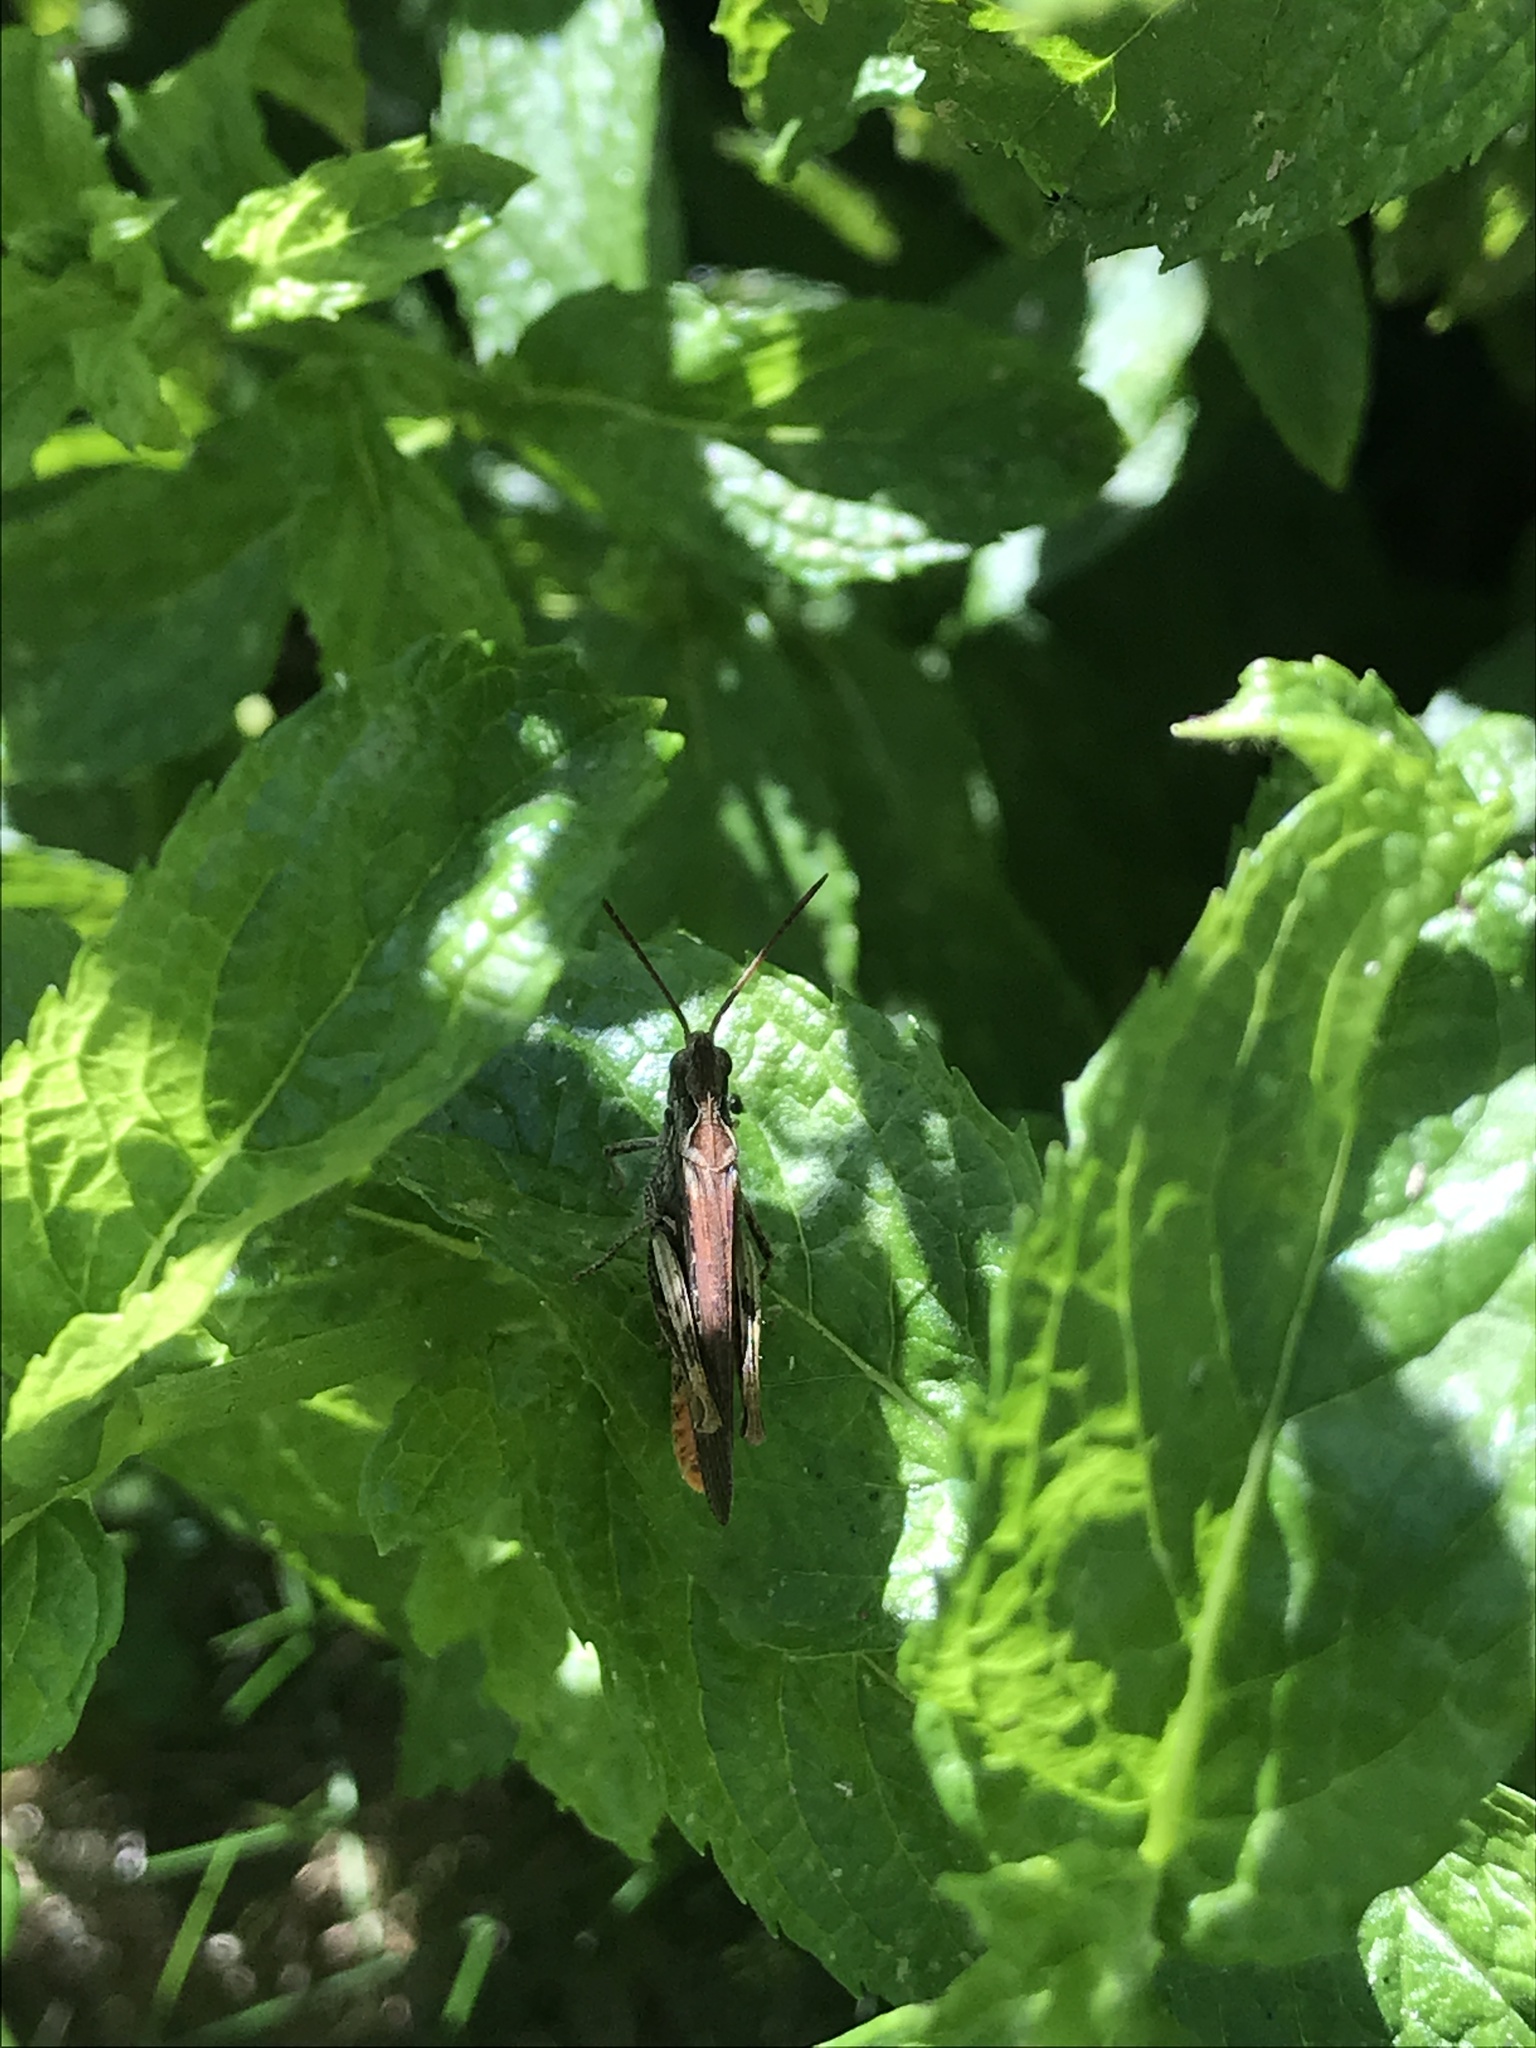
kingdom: Animalia
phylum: Arthropoda
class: Insecta
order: Orthoptera
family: Acrididae
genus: Chorthippus
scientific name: Chorthippus brunneus
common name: Field grasshopper
